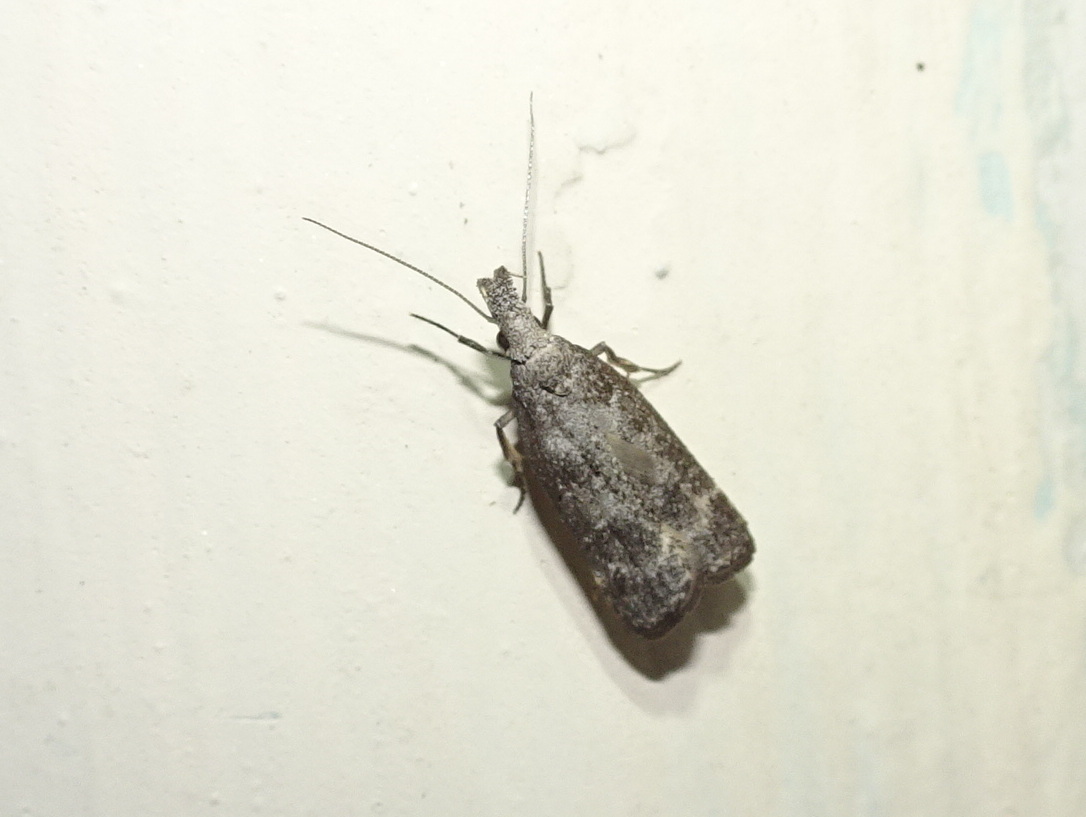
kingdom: Animalia
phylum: Arthropoda
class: Insecta
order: Lepidoptera
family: Gelechiidae
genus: Dichomeris
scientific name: Dichomeris inversella
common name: Inverse dichomeris moth
